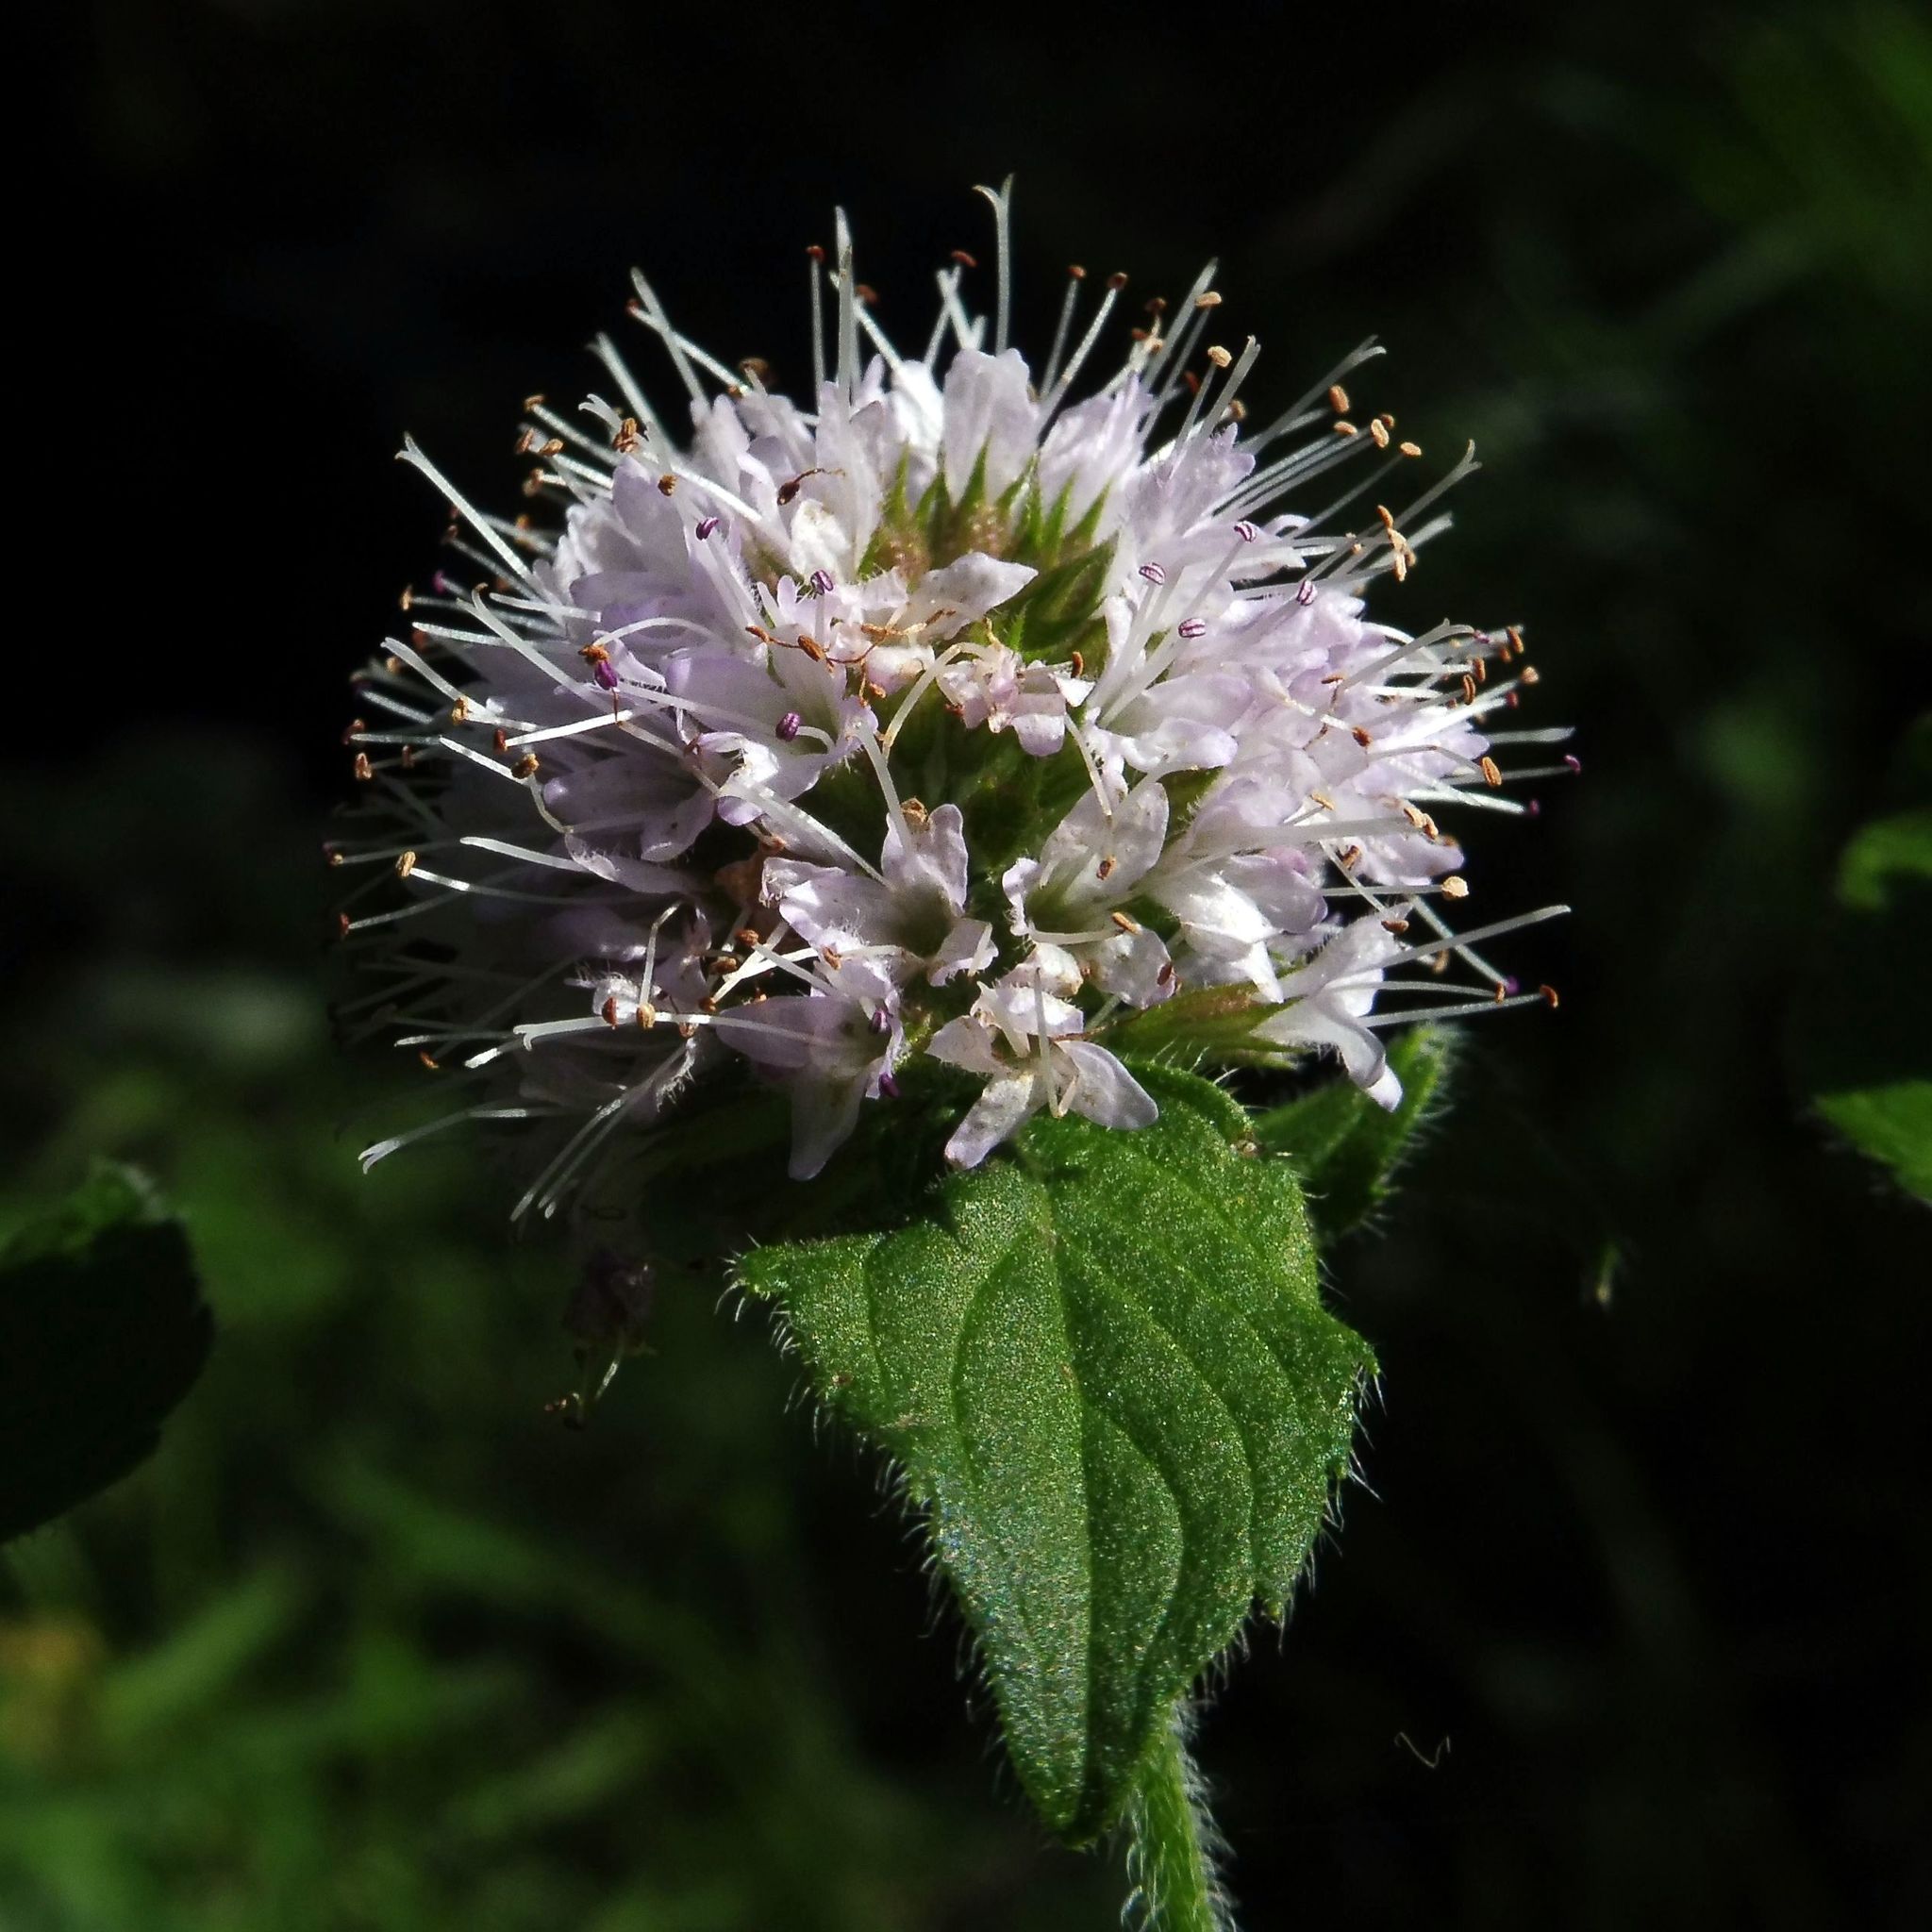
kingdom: Plantae
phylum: Tracheophyta
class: Magnoliopsida
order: Lamiales
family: Lamiaceae
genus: Mentha
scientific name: Mentha aquatica
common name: Water mint
